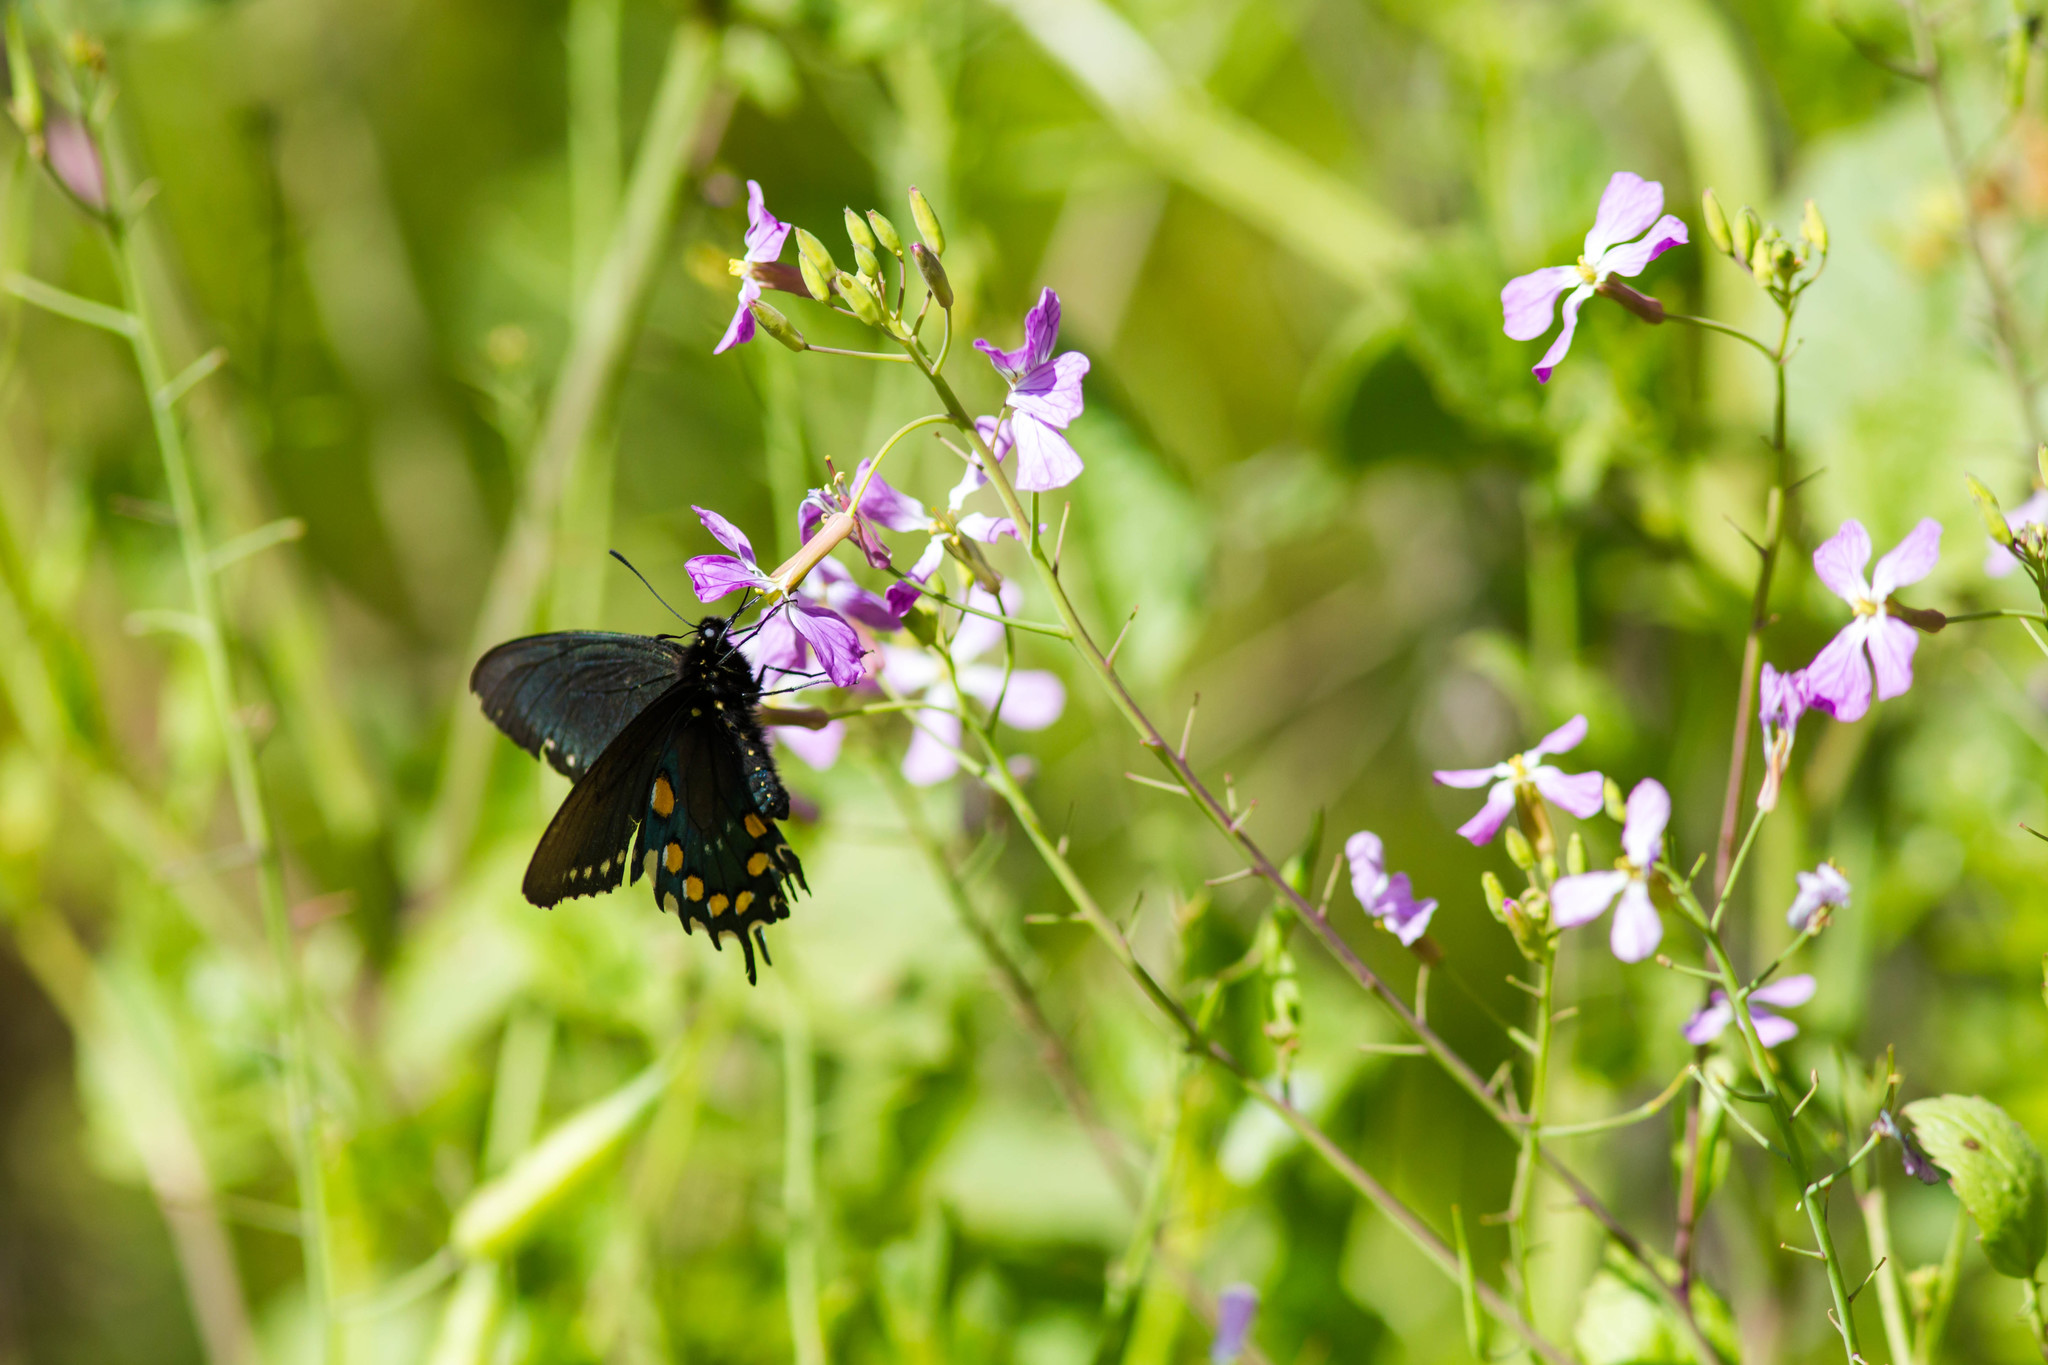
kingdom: Animalia
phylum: Arthropoda
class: Insecta
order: Lepidoptera
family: Papilionidae
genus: Battus
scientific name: Battus philenor
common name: Pipevine swallowtail
